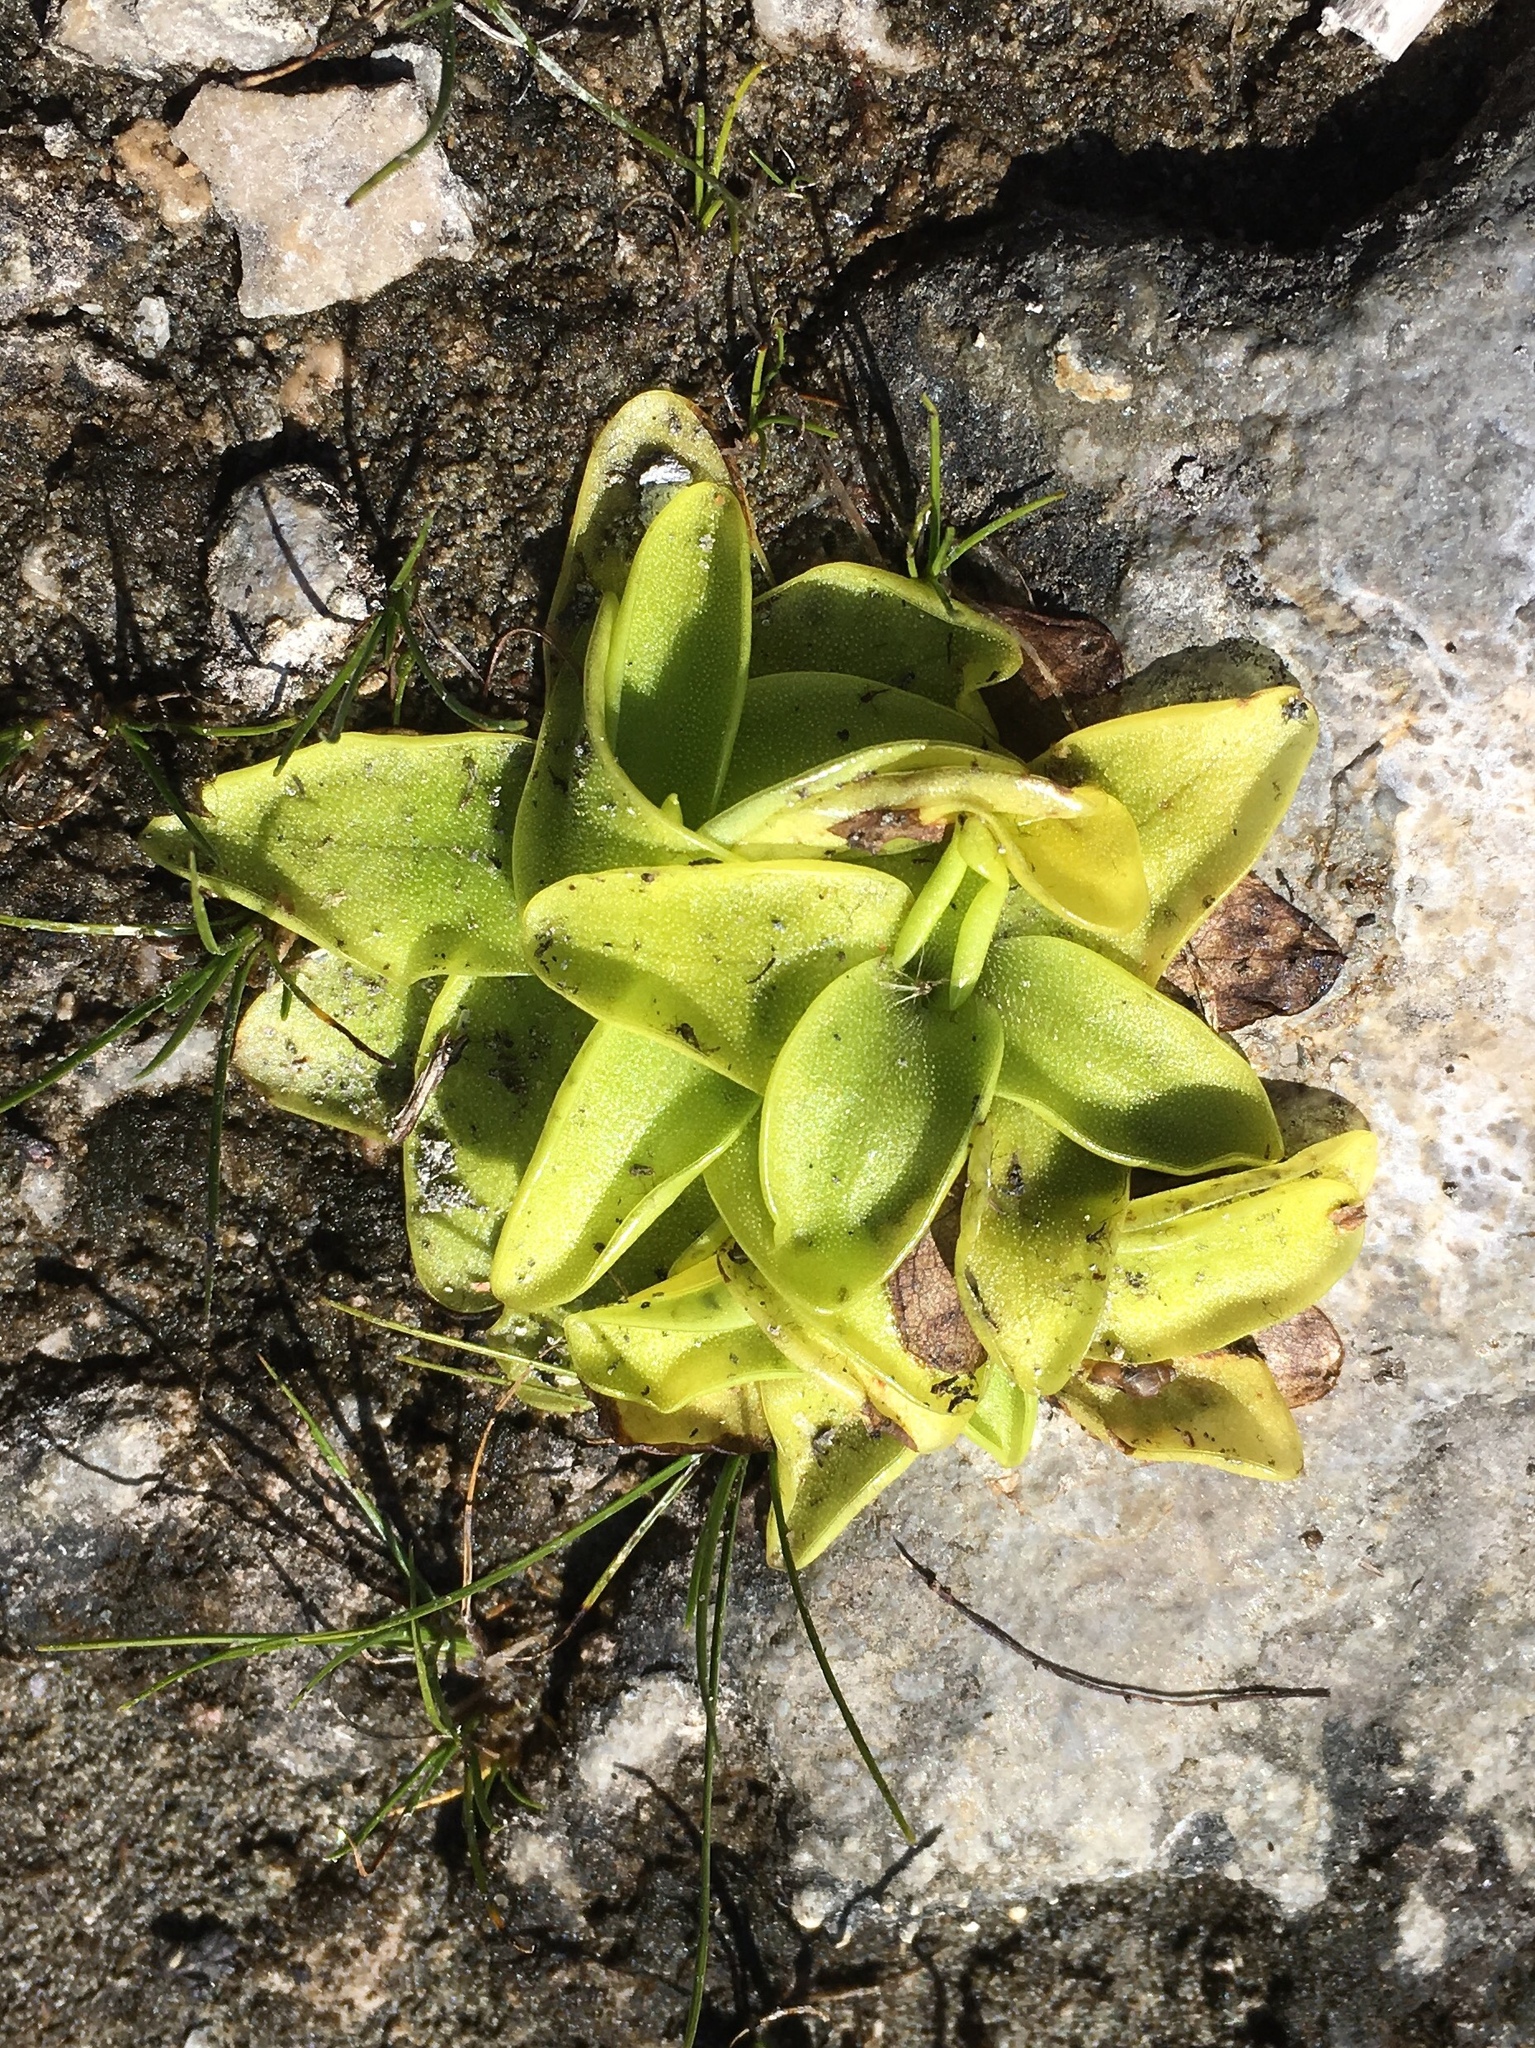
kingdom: Plantae
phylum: Tracheophyta
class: Magnoliopsida
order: Lamiales
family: Lentibulariaceae
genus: Pinguicula
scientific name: Pinguicula vulgaris
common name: Common butterwort
